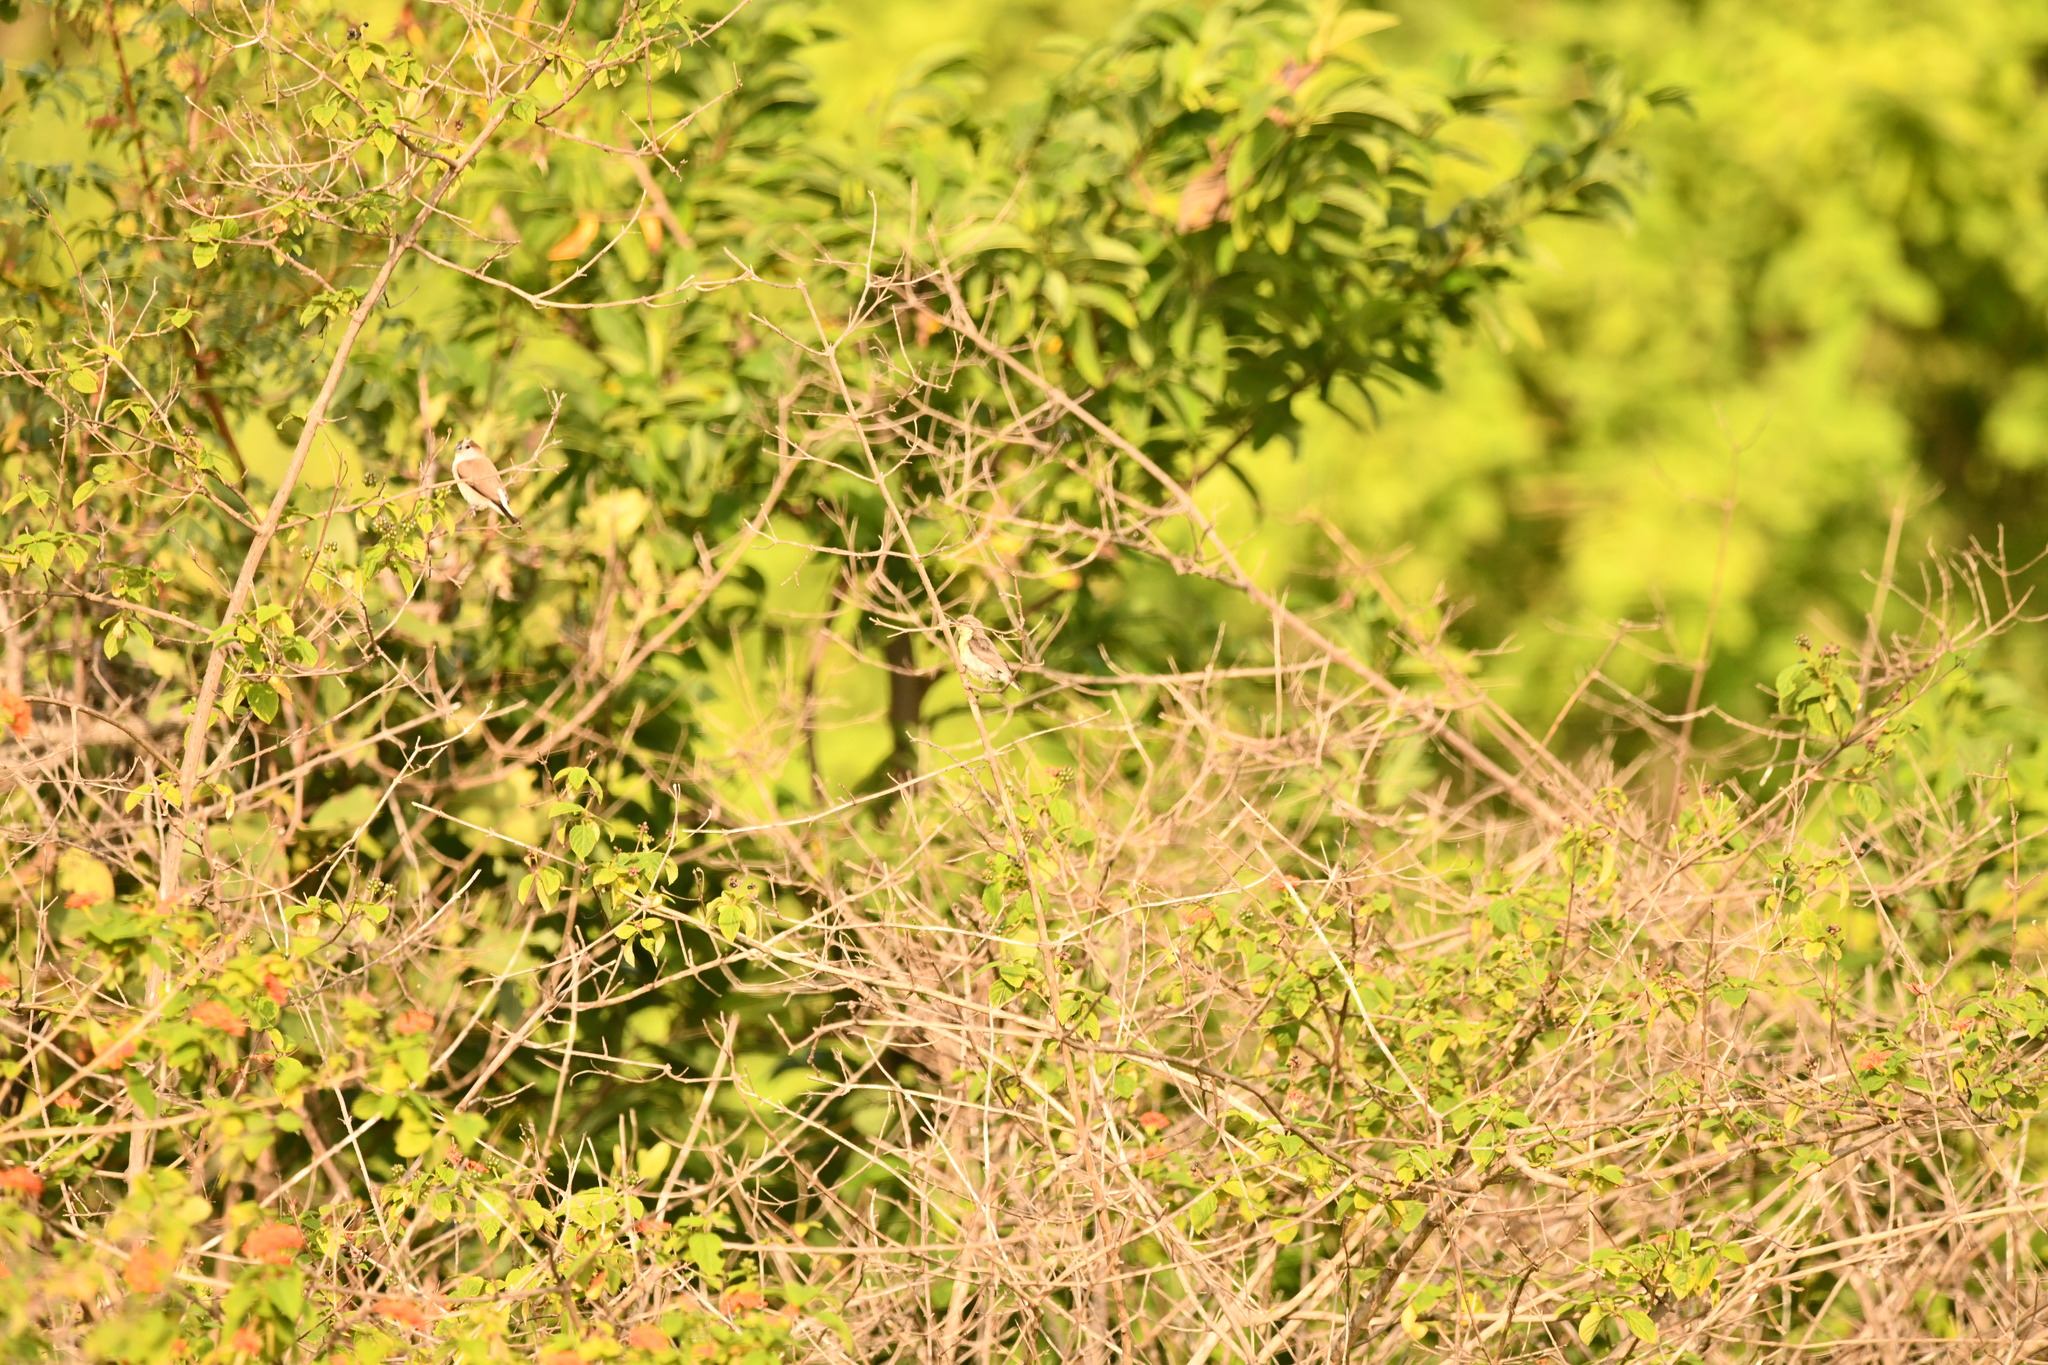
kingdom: Animalia
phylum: Chordata
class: Aves
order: Passeriformes
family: Estrildidae
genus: Euodice
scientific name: Euodice malabarica
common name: Indian silverbill
